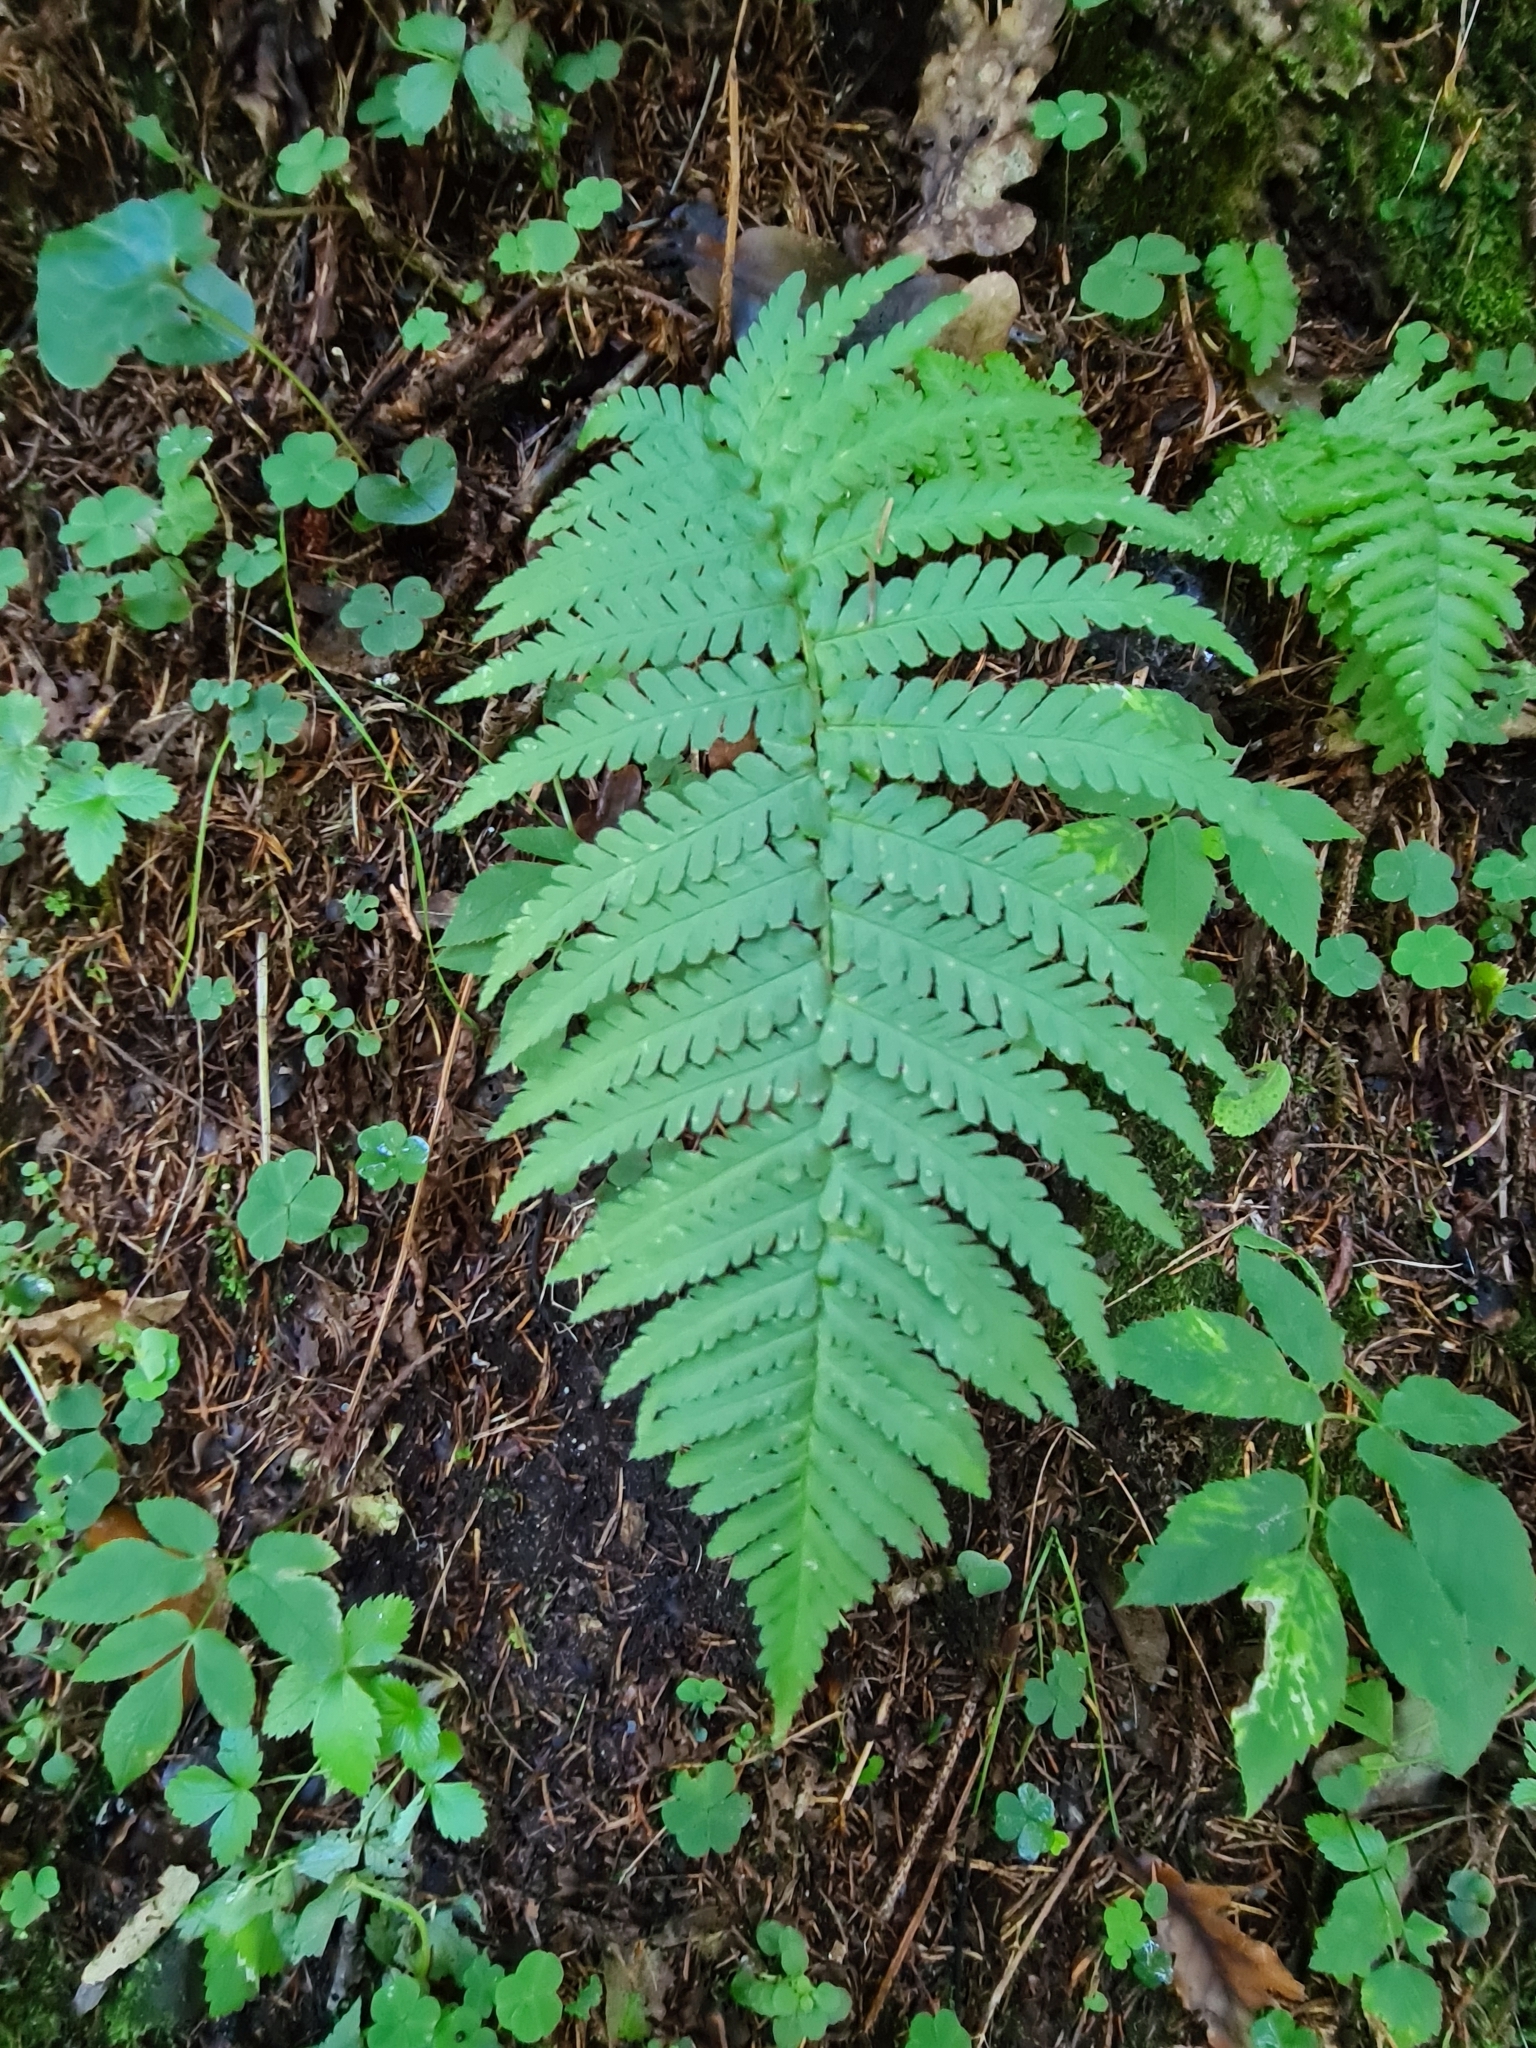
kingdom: Plantae
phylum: Tracheophyta
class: Polypodiopsida
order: Polypodiales
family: Dryopteridaceae
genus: Dryopteris
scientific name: Dryopteris filix-mas
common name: Male fern
